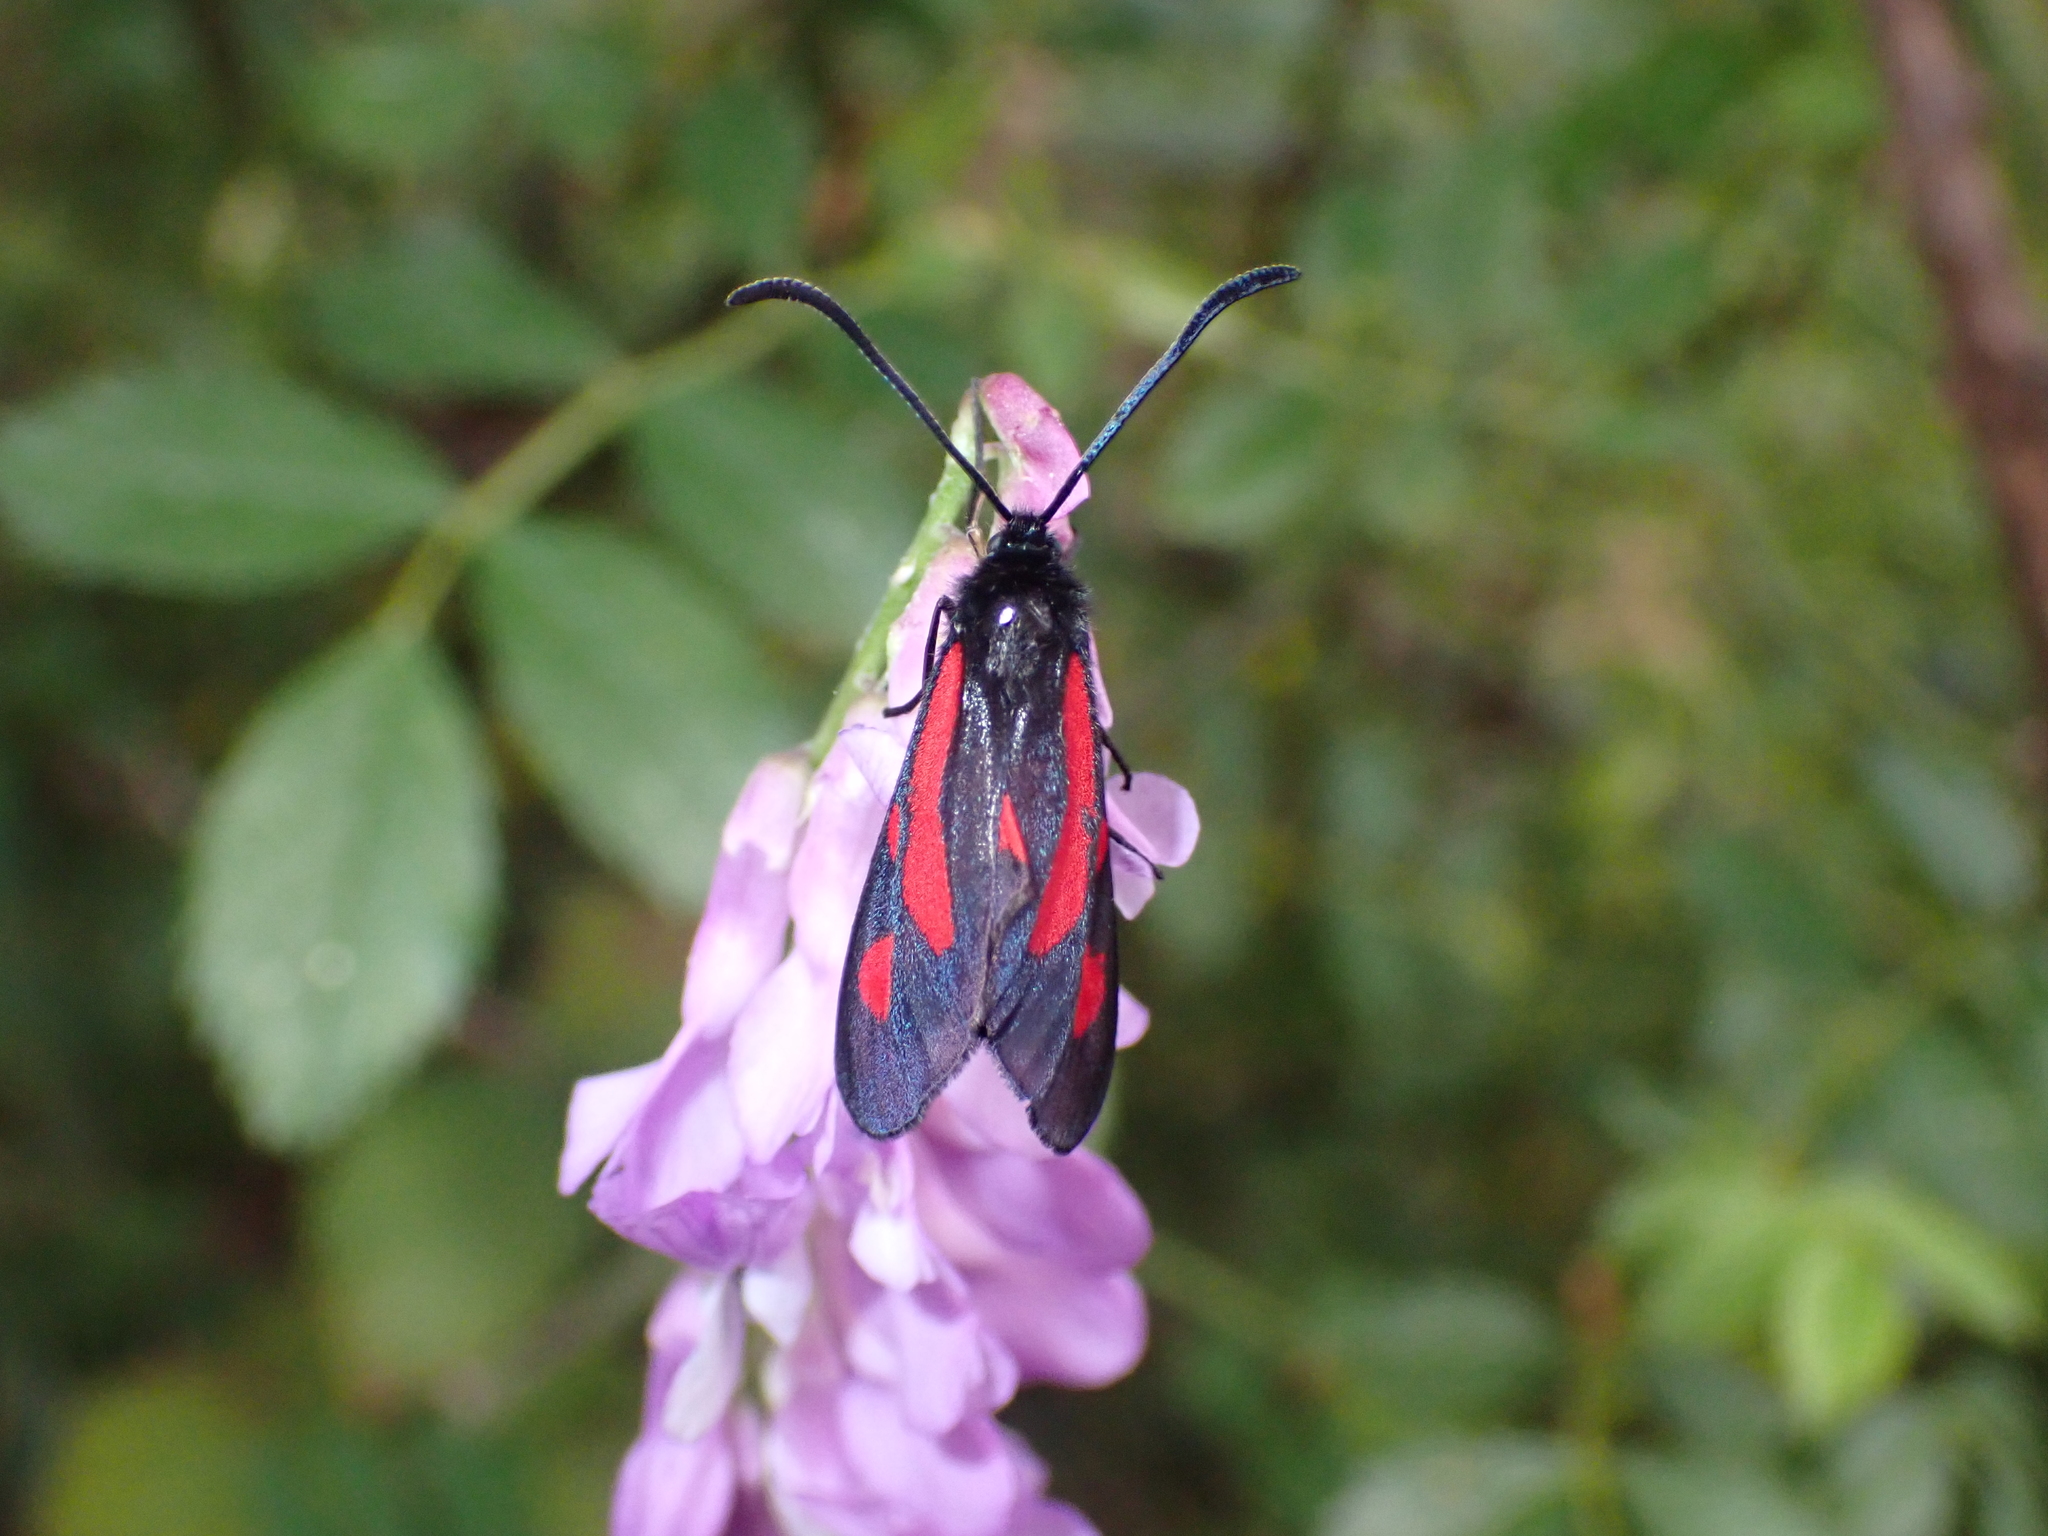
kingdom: Animalia
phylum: Arthropoda
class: Insecta
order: Lepidoptera
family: Zygaenidae
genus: Zygaena
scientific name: Zygaena romeo
